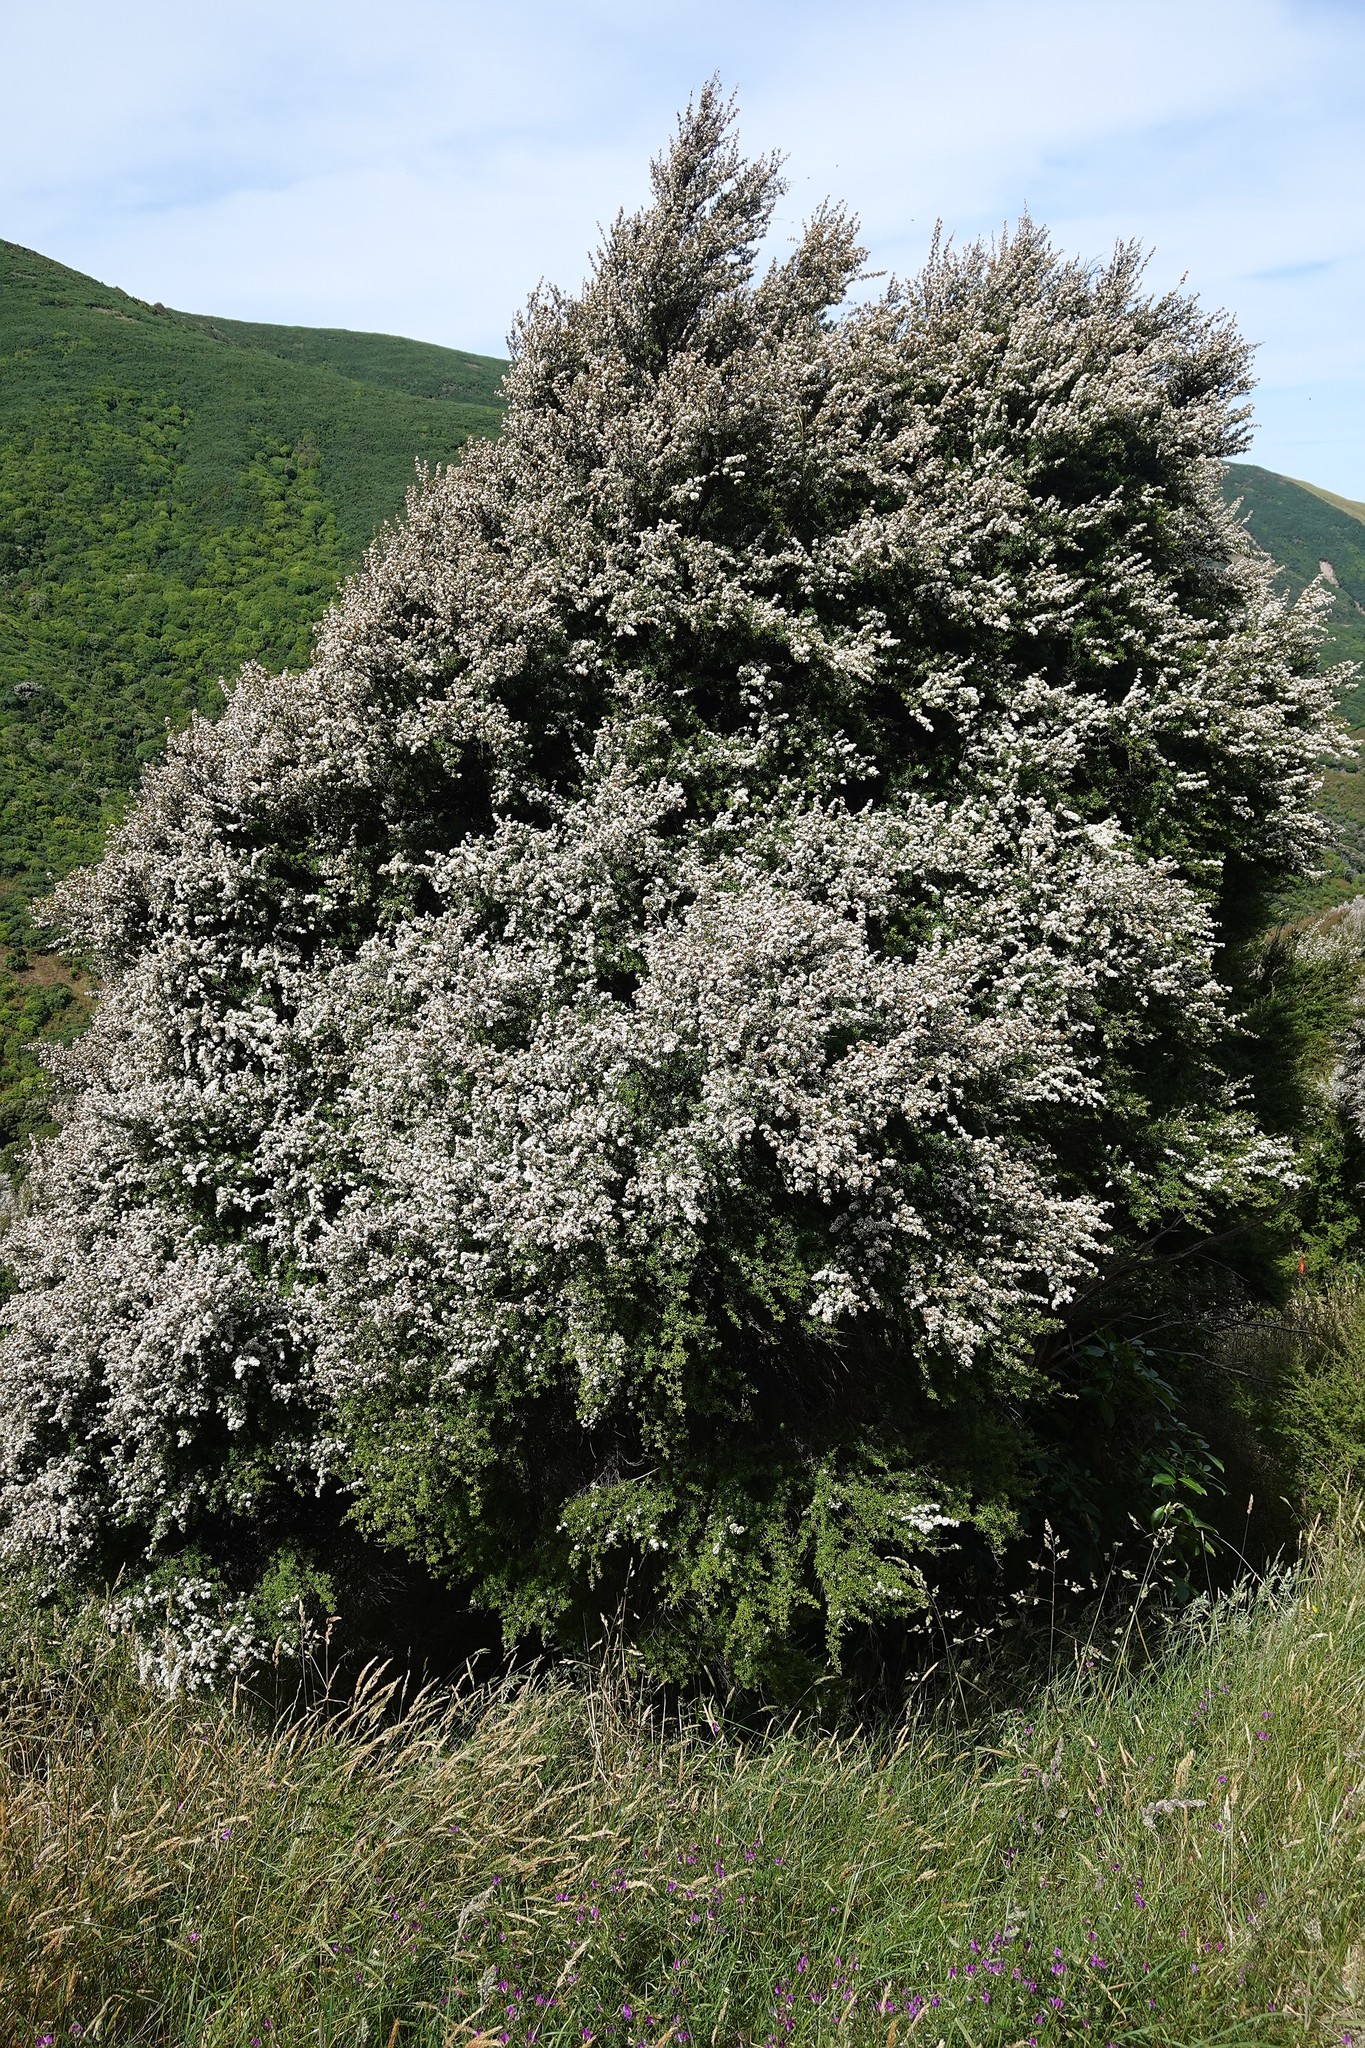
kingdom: Plantae
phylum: Tracheophyta
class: Magnoliopsida
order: Myrtales
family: Myrtaceae
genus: Kunzea
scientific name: Kunzea robusta
